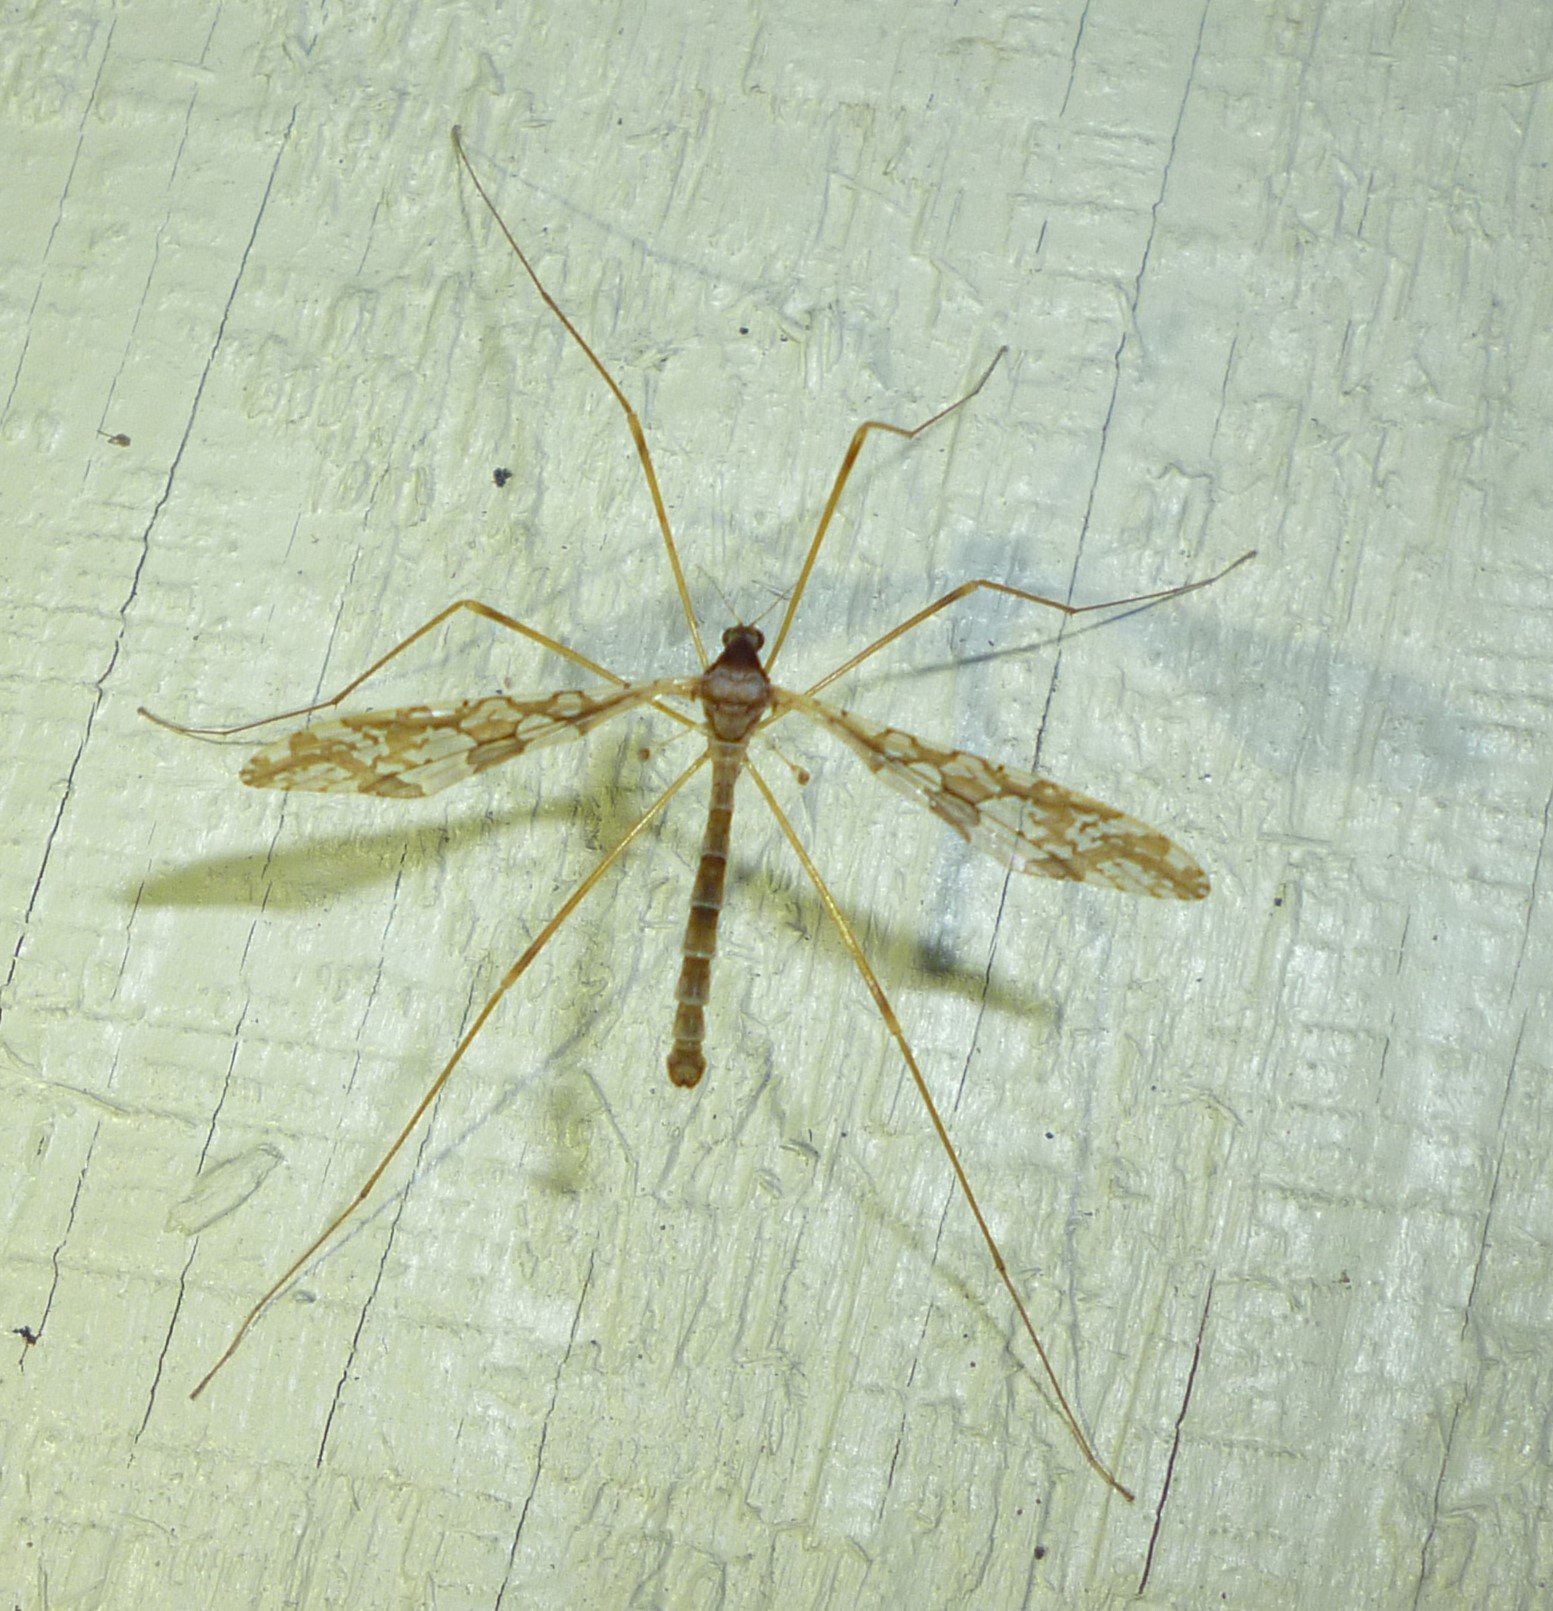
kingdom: Animalia
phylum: Arthropoda
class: Insecta
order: Diptera
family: Limoniidae
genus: Epiphragma
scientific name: Epiphragma solatrix
